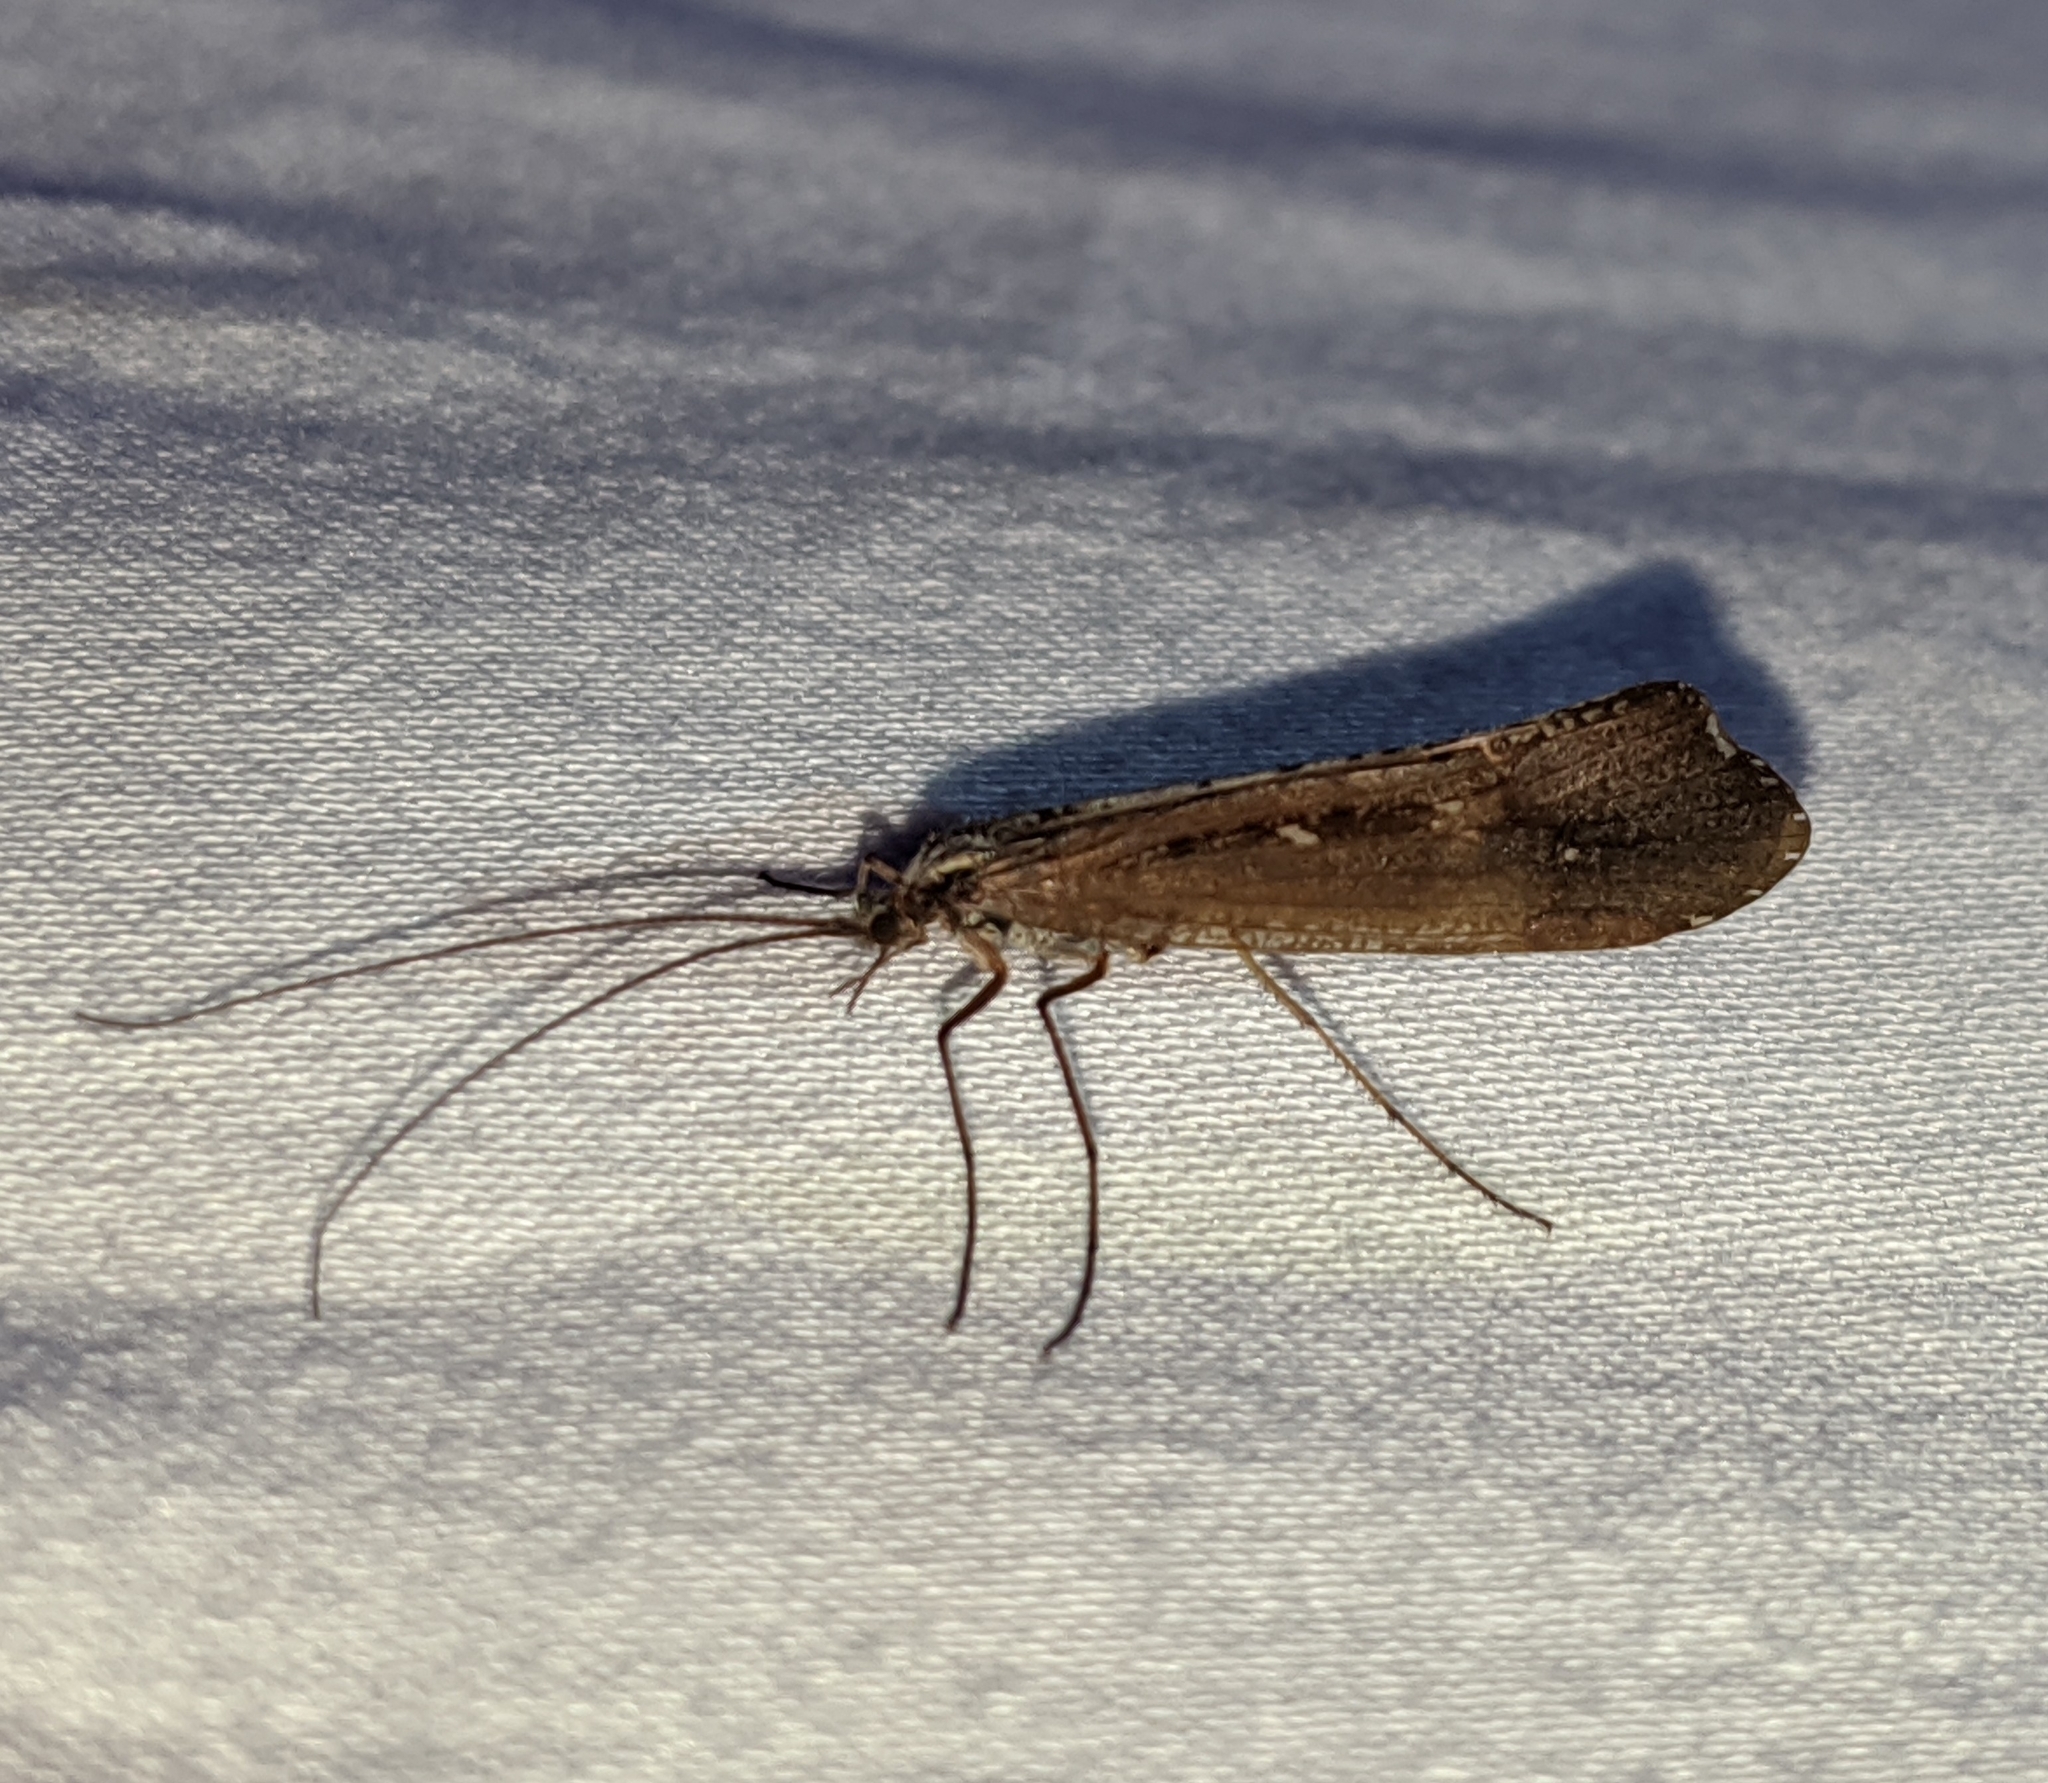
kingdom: Animalia
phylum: Arthropoda
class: Insecta
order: Trichoptera
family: Limnephilidae
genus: Glyphopsyche
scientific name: Glyphopsyche irrorata
